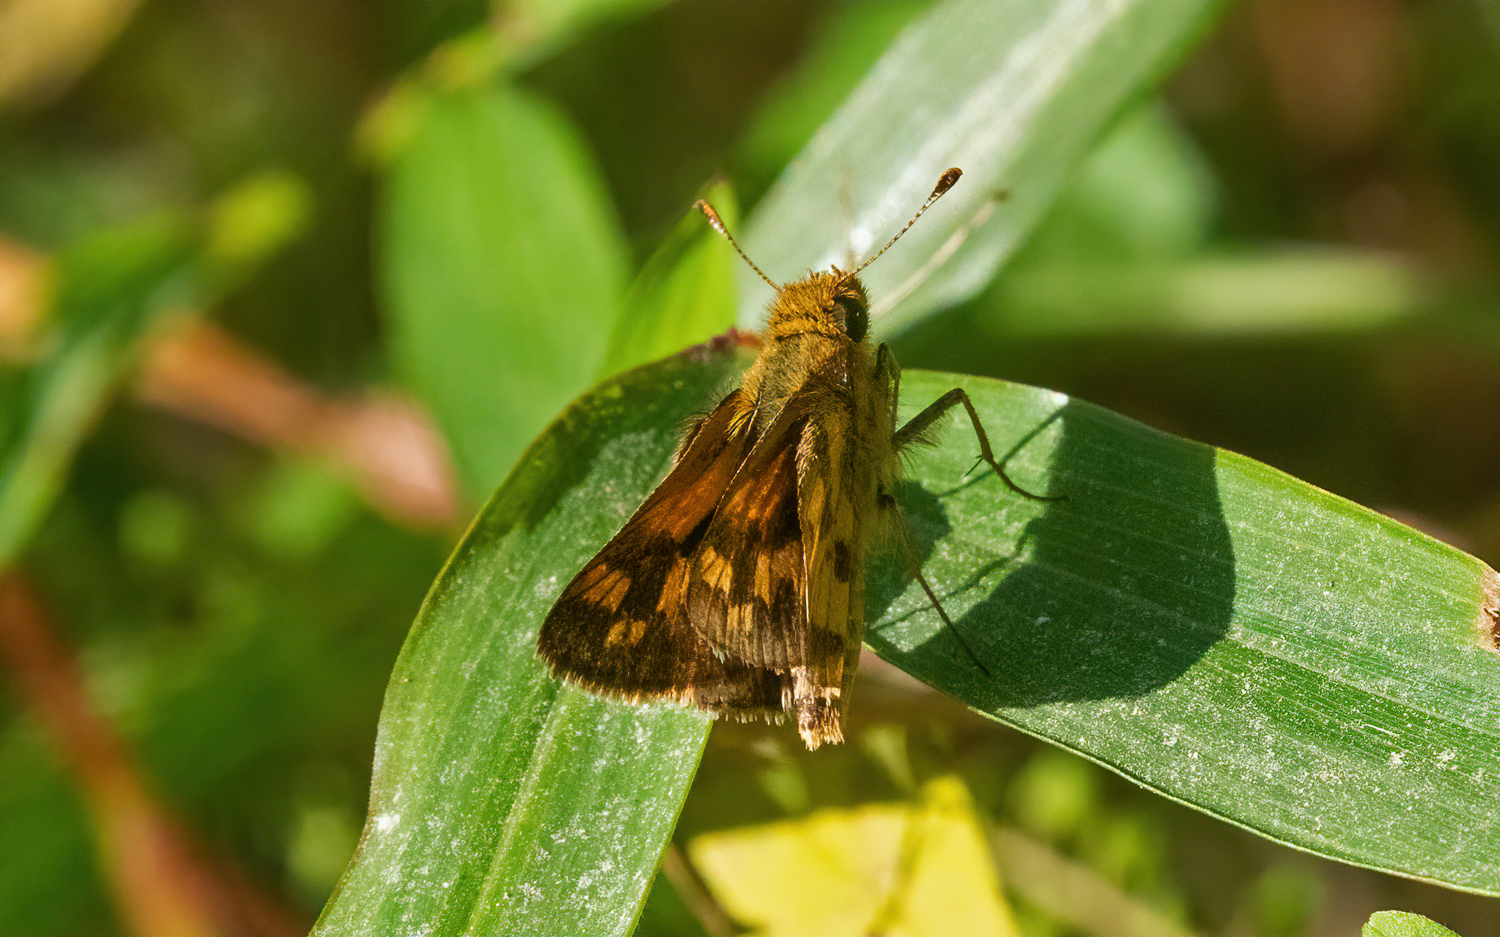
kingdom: Animalia
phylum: Arthropoda
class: Insecta
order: Lepidoptera
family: Hesperiidae
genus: Polites
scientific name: Polites coras
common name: Peck's skipper
